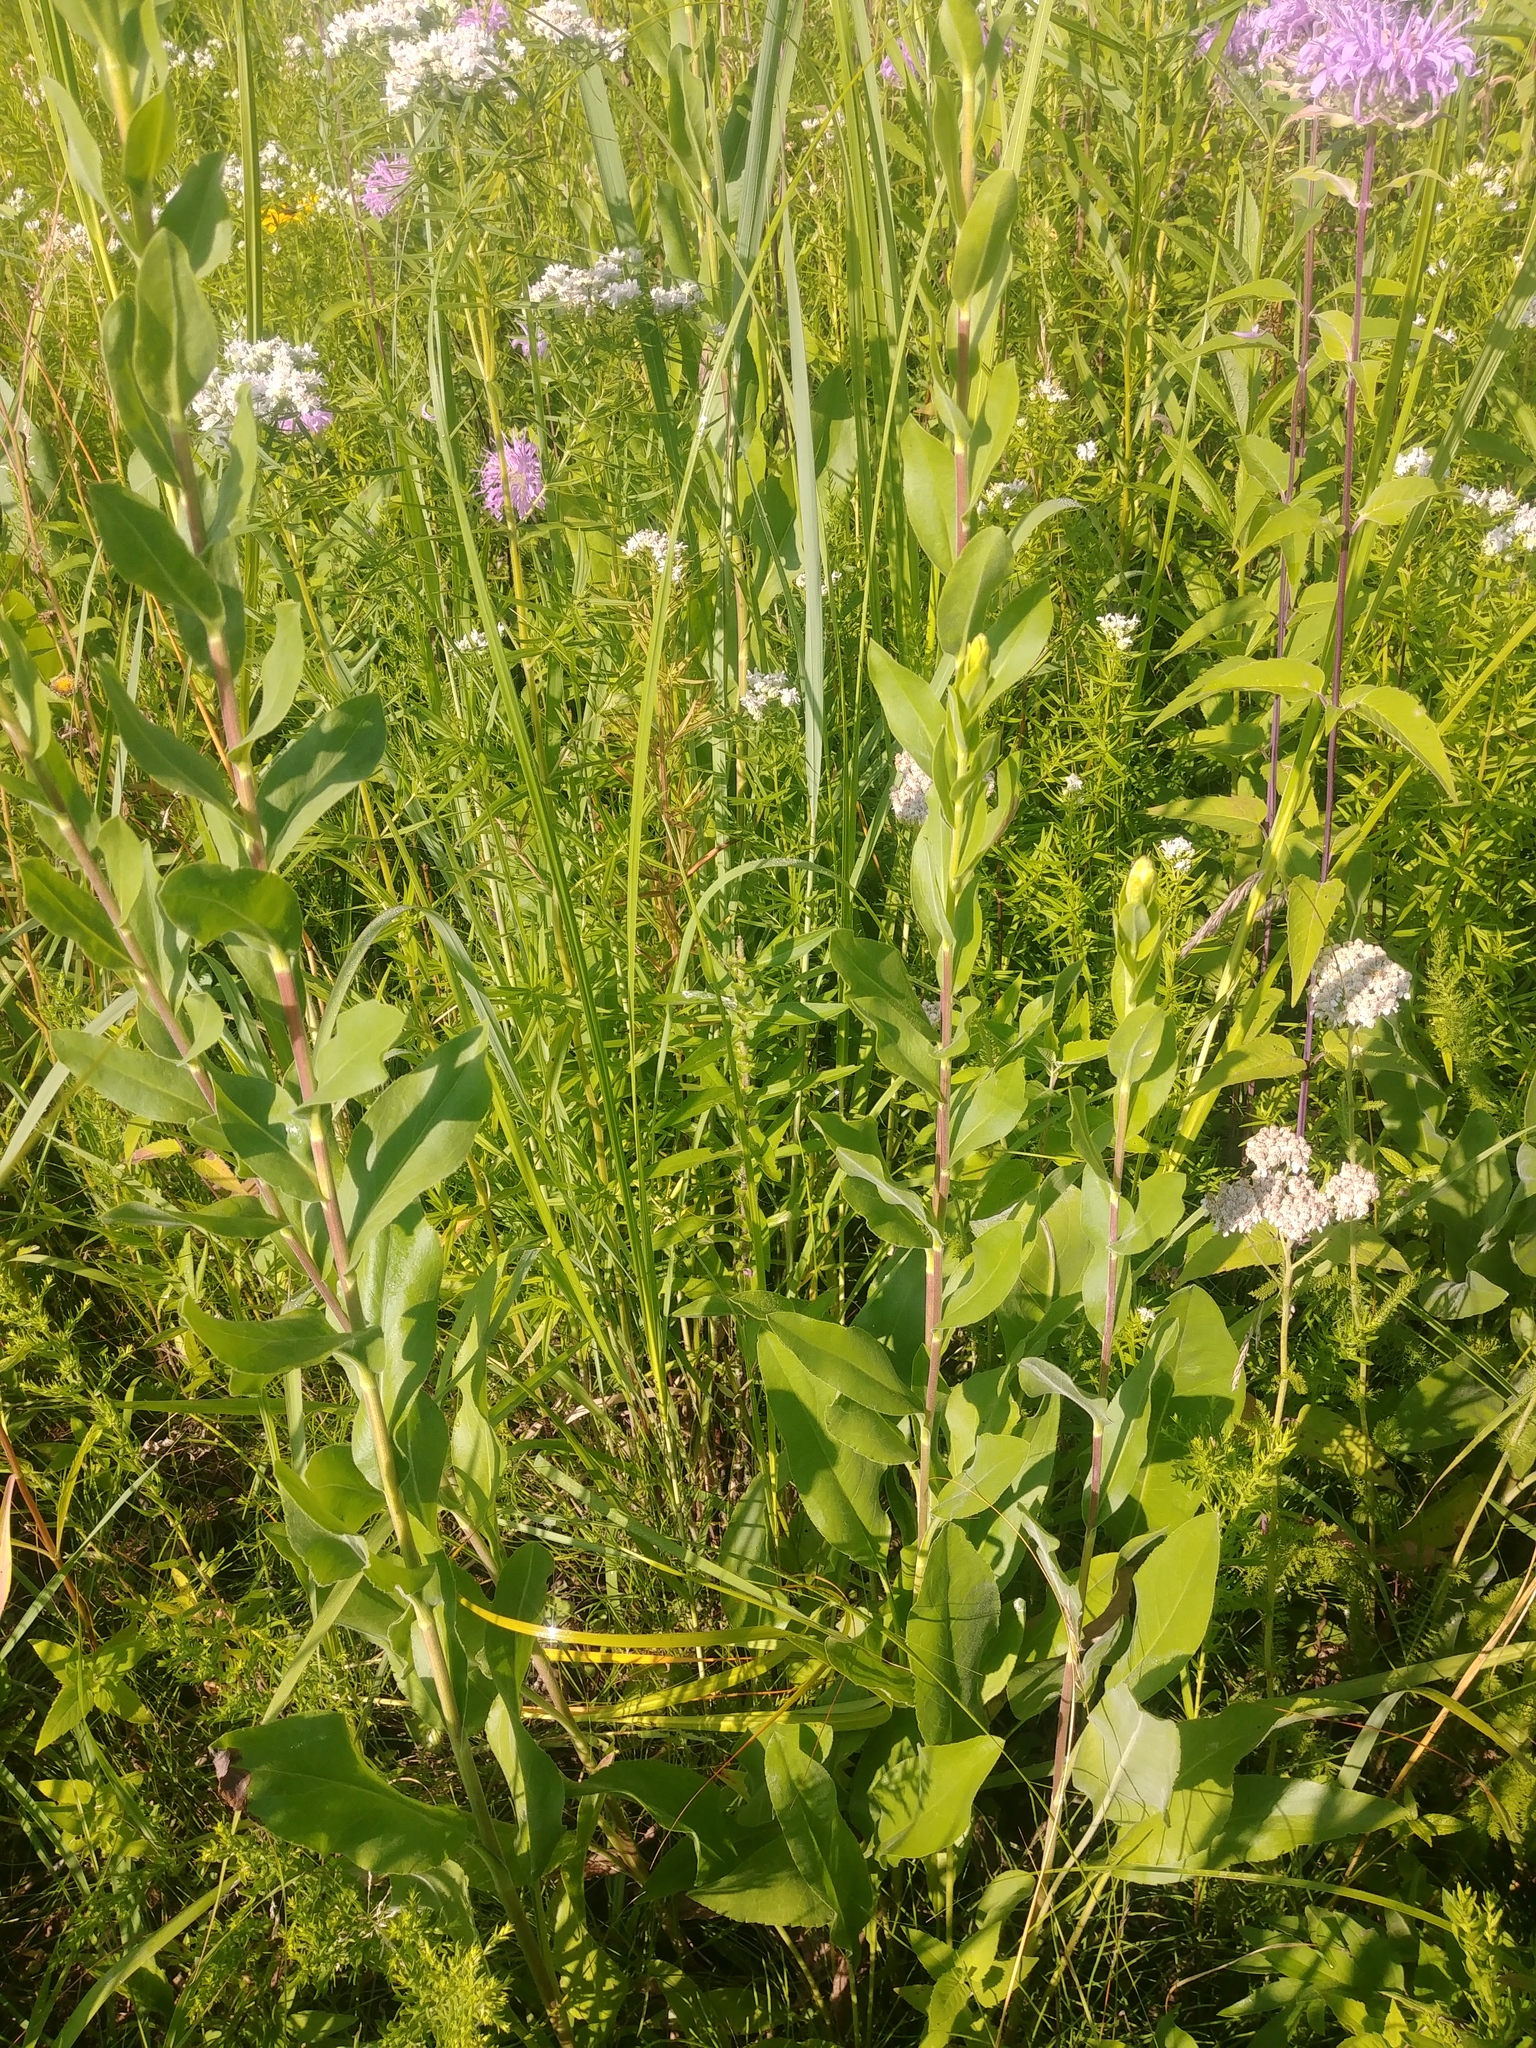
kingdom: Plantae
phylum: Tracheophyta
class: Magnoliopsida
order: Asterales
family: Asteraceae
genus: Solidago
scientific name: Solidago rigida
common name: Rigid goldenrod
